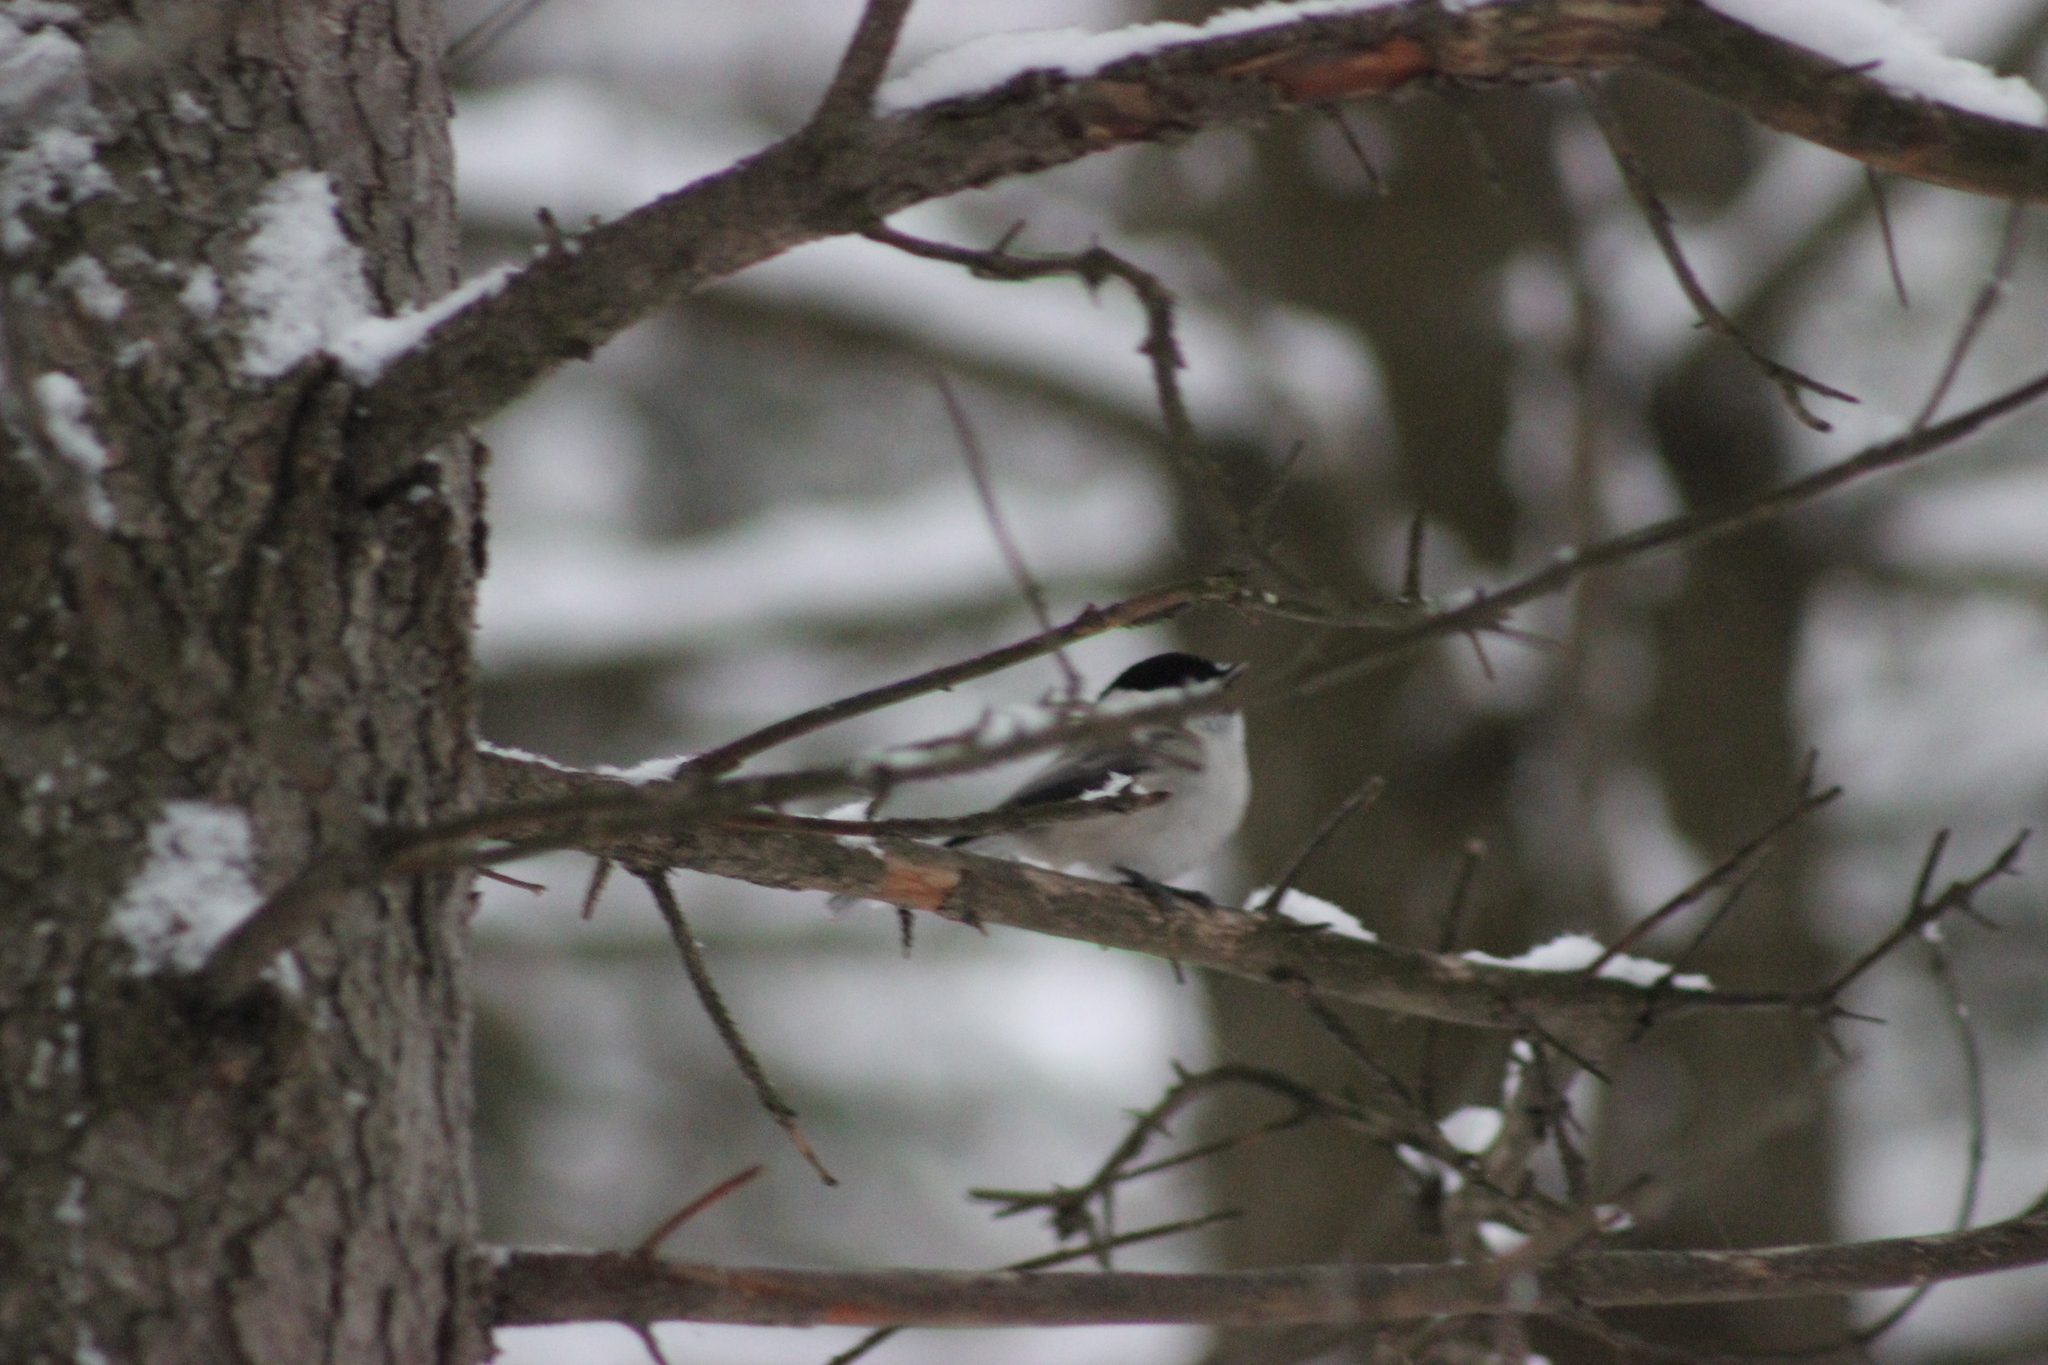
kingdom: Animalia
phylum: Chordata
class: Aves
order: Passeriformes
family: Paridae
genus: Poecile
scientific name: Poecile montanus
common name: Willow tit
